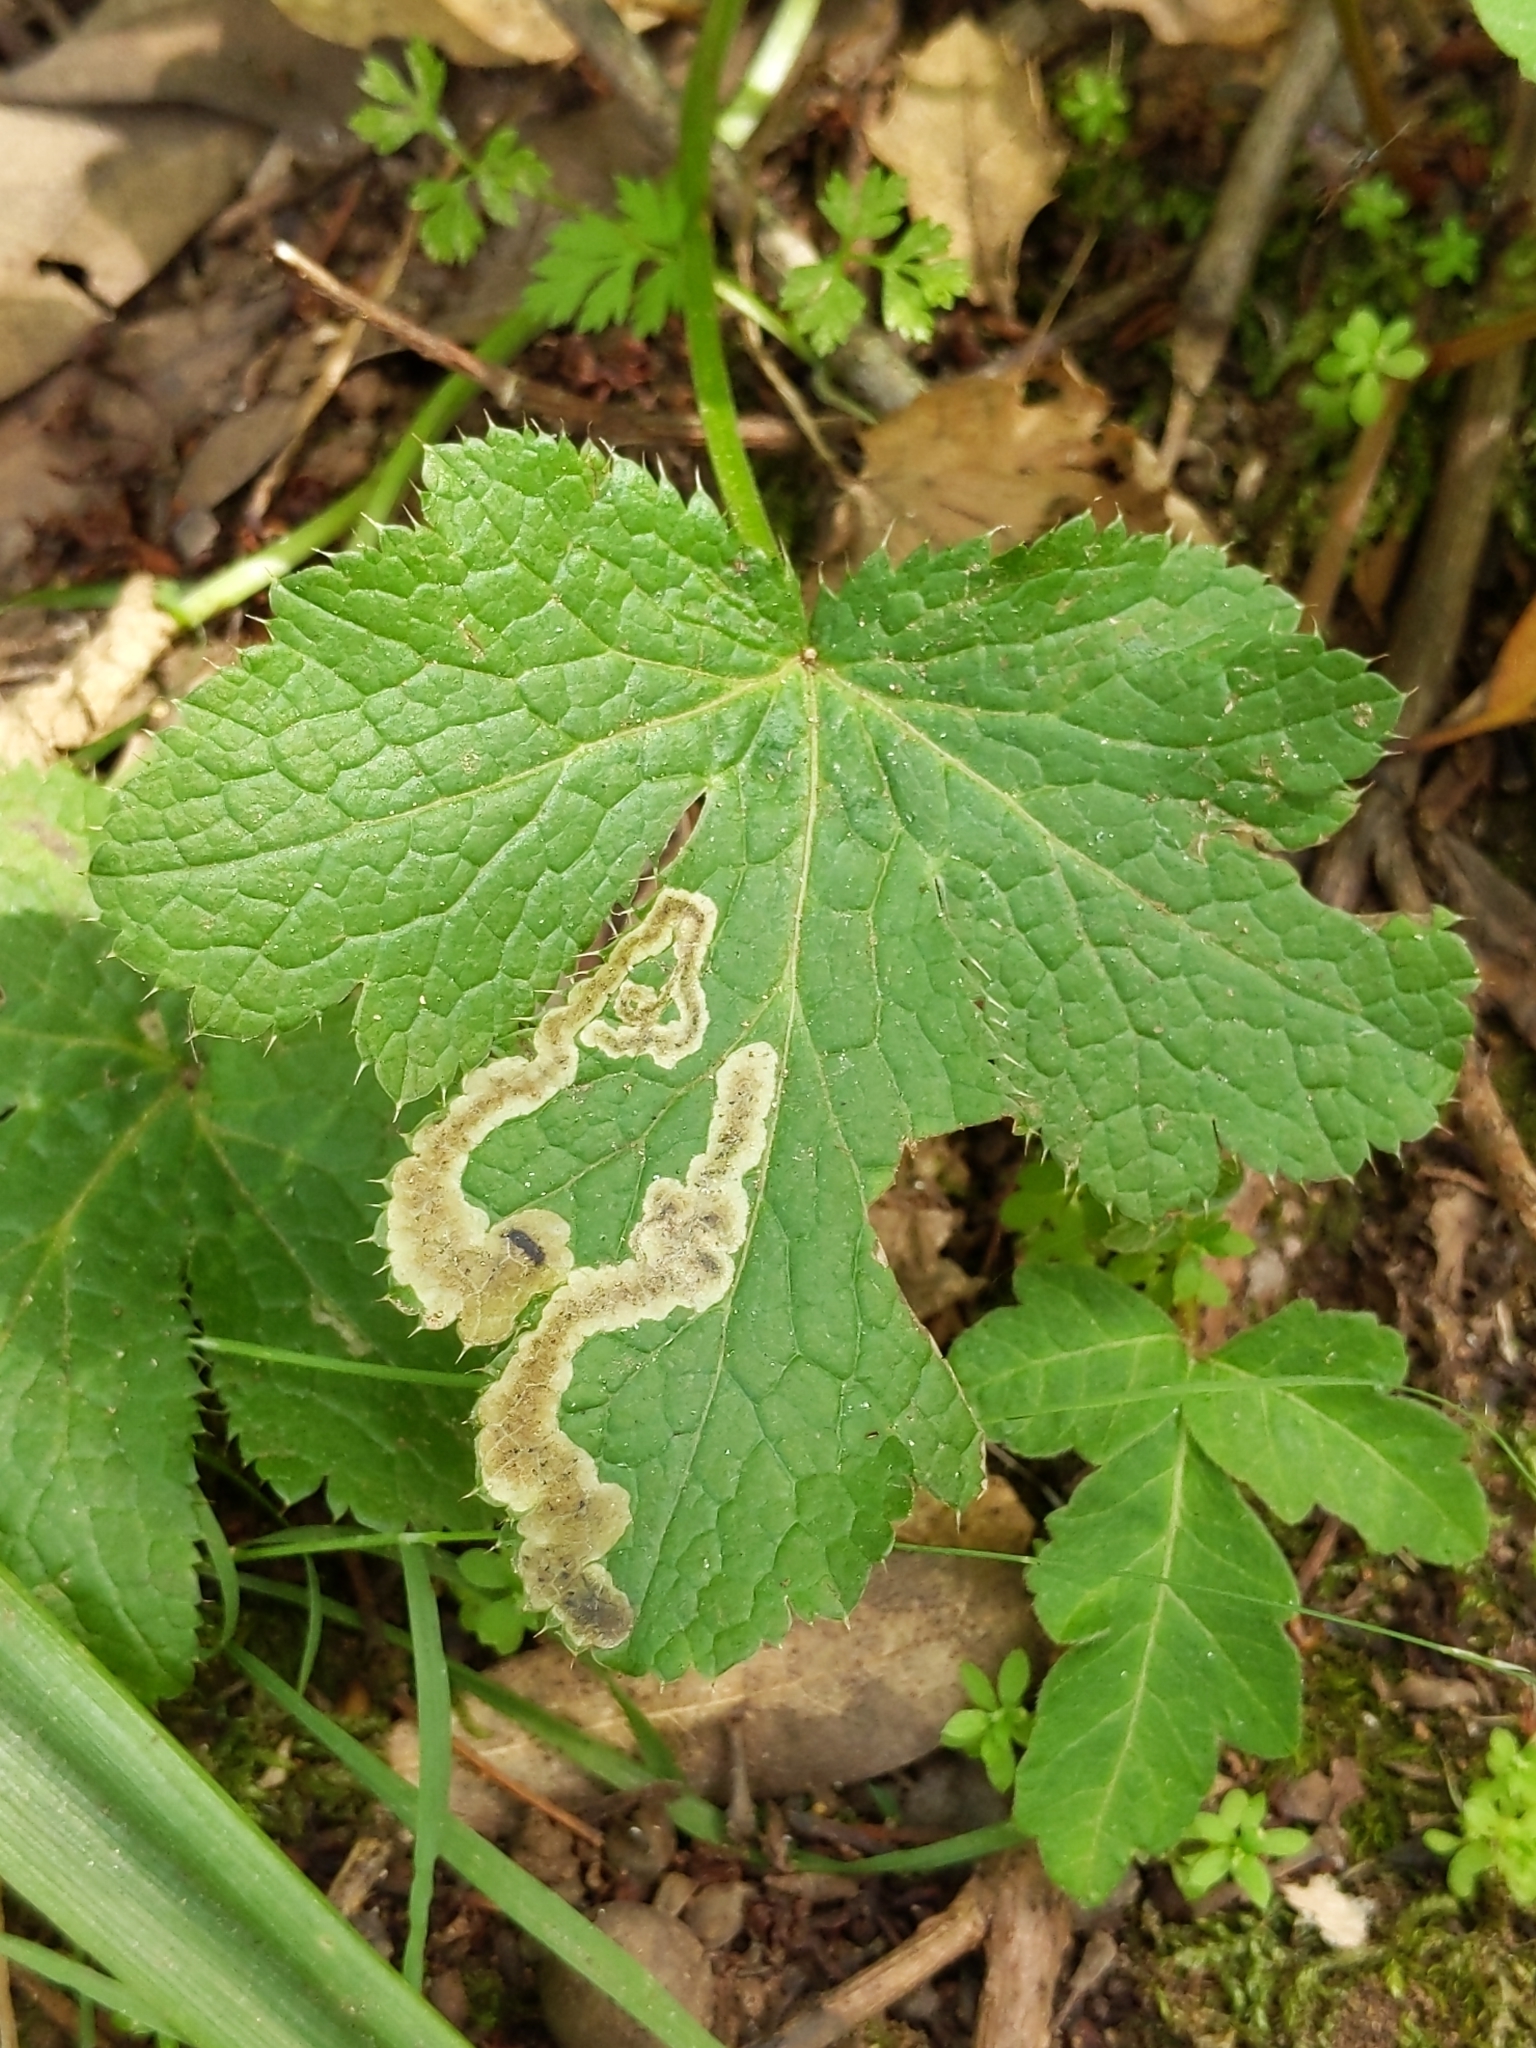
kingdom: Animalia
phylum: Arthropoda
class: Insecta
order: Diptera
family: Agromyzidae
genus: Phytomyza
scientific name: Phytomyza saniculae
